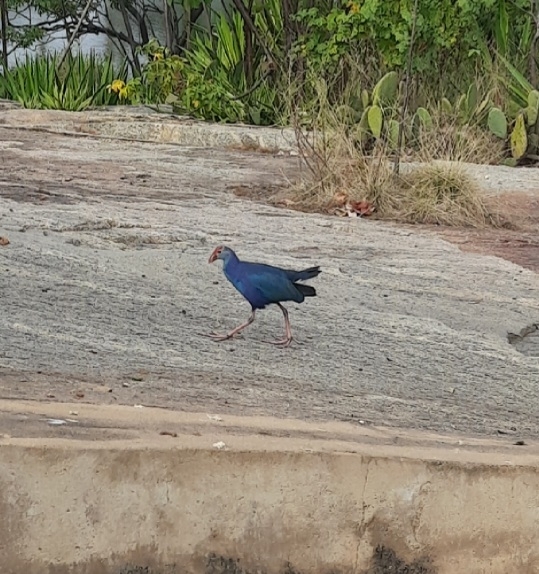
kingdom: Animalia
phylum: Chordata
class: Aves
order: Gruiformes
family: Rallidae
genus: Porphyrio
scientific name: Porphyrio porphyrio
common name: Purple swamphen
